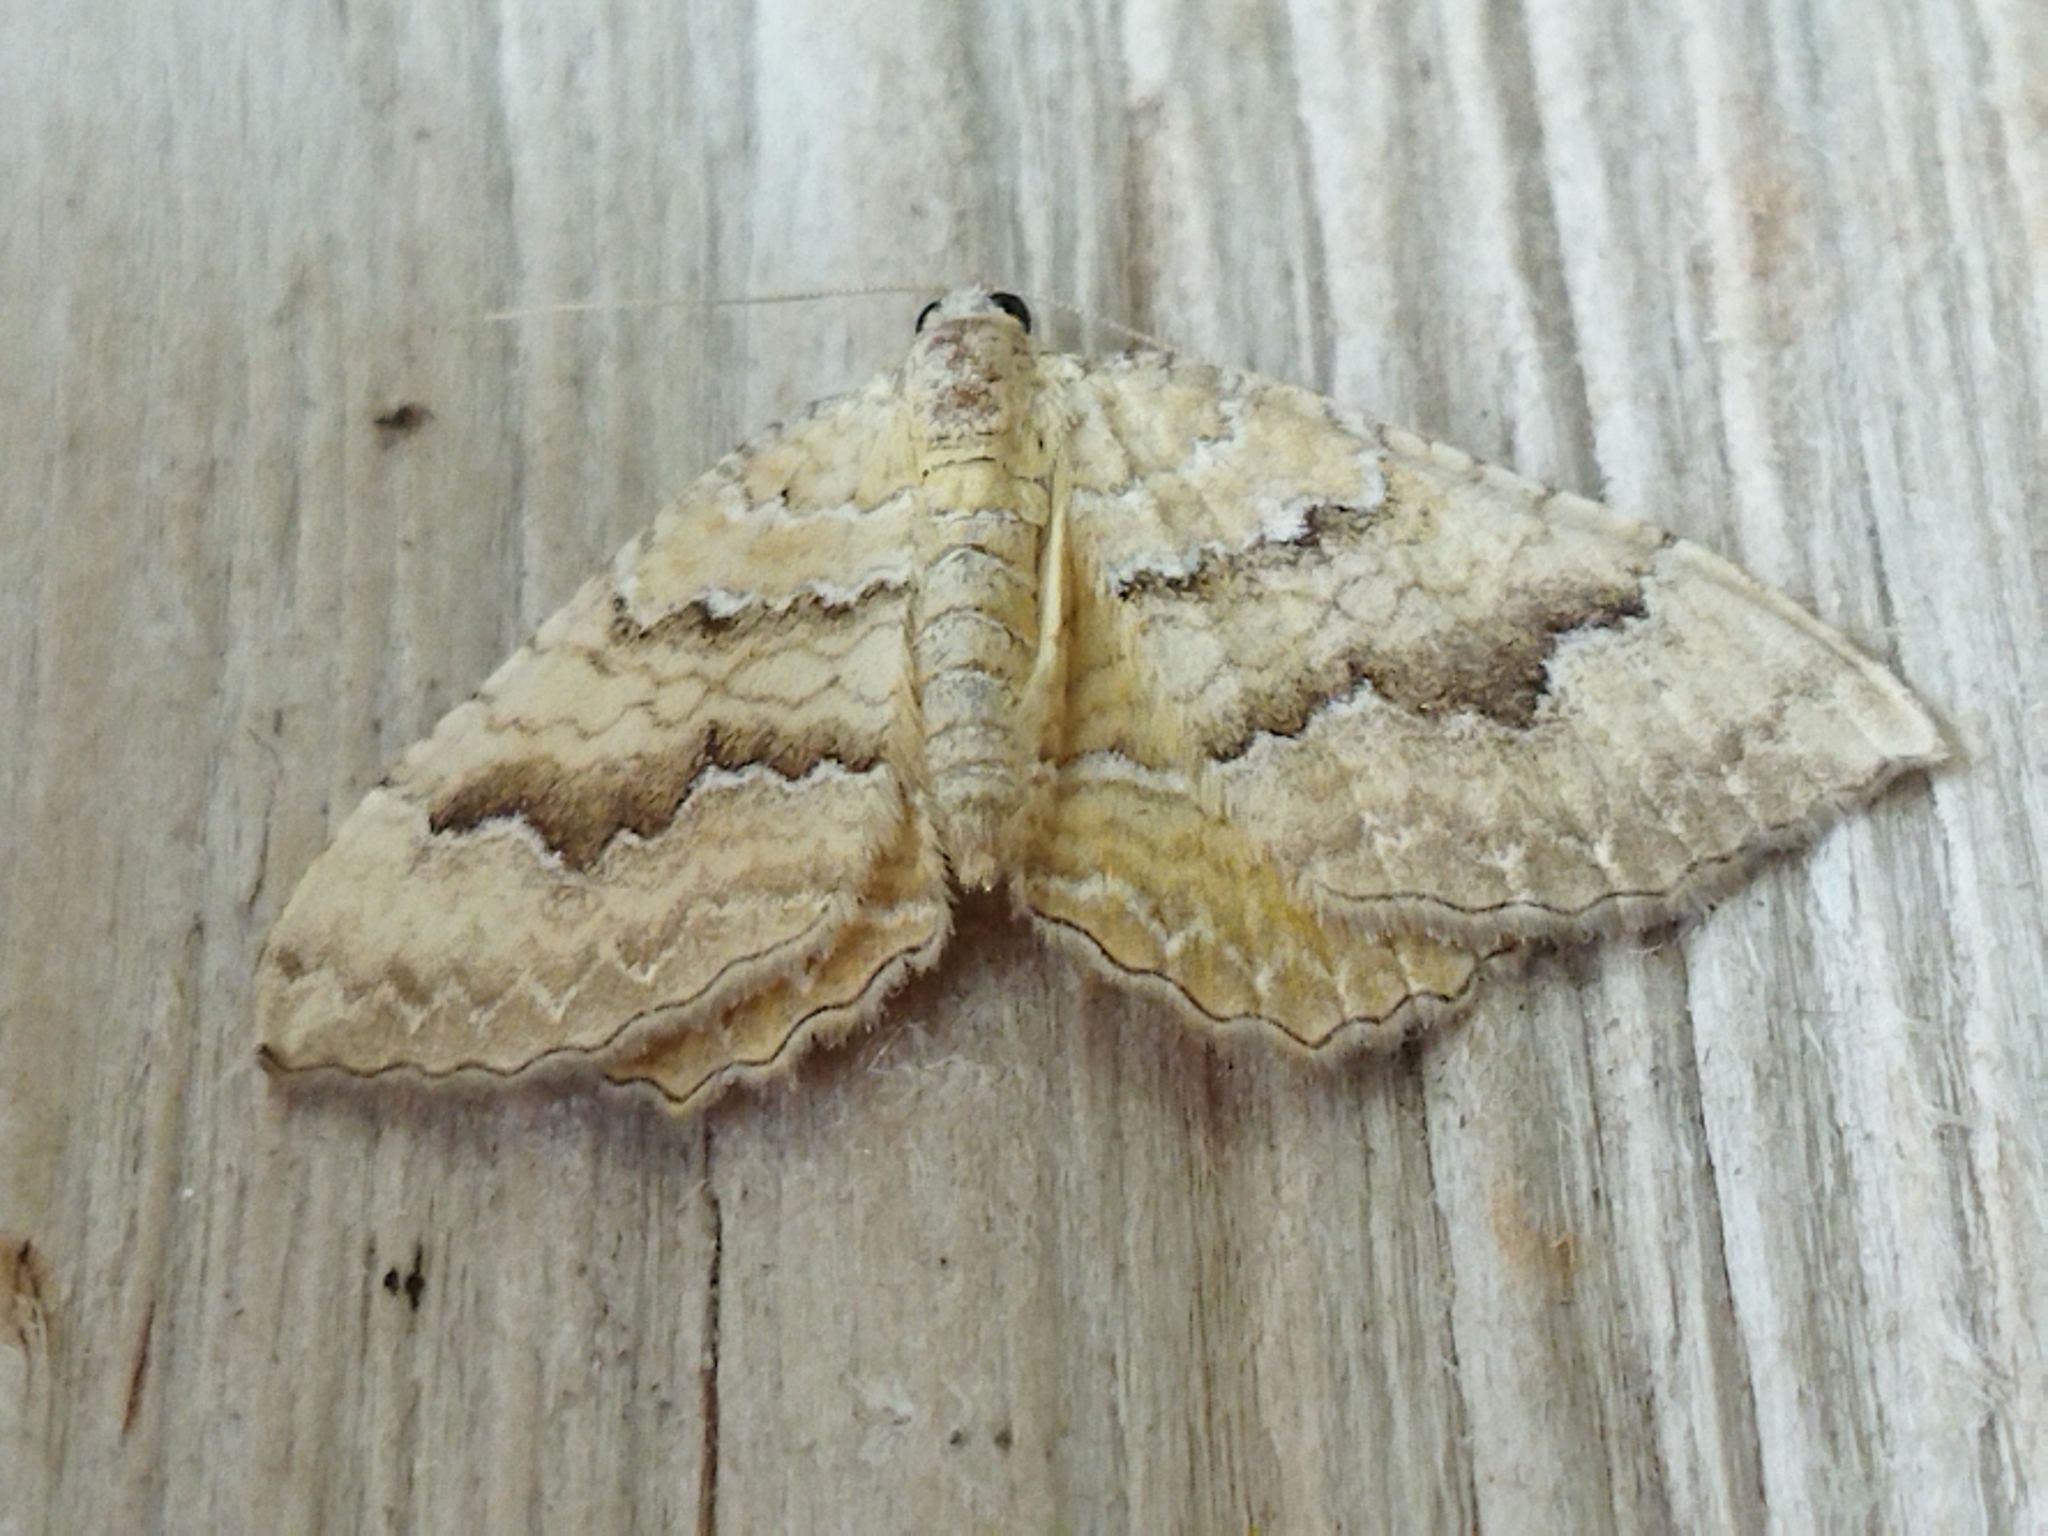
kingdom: Animalia
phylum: Arthropoda
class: Insecta
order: Lepidoptera
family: Geometridae
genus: Camptogramma
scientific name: Camptogramma bilineata
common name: Yellow shell
